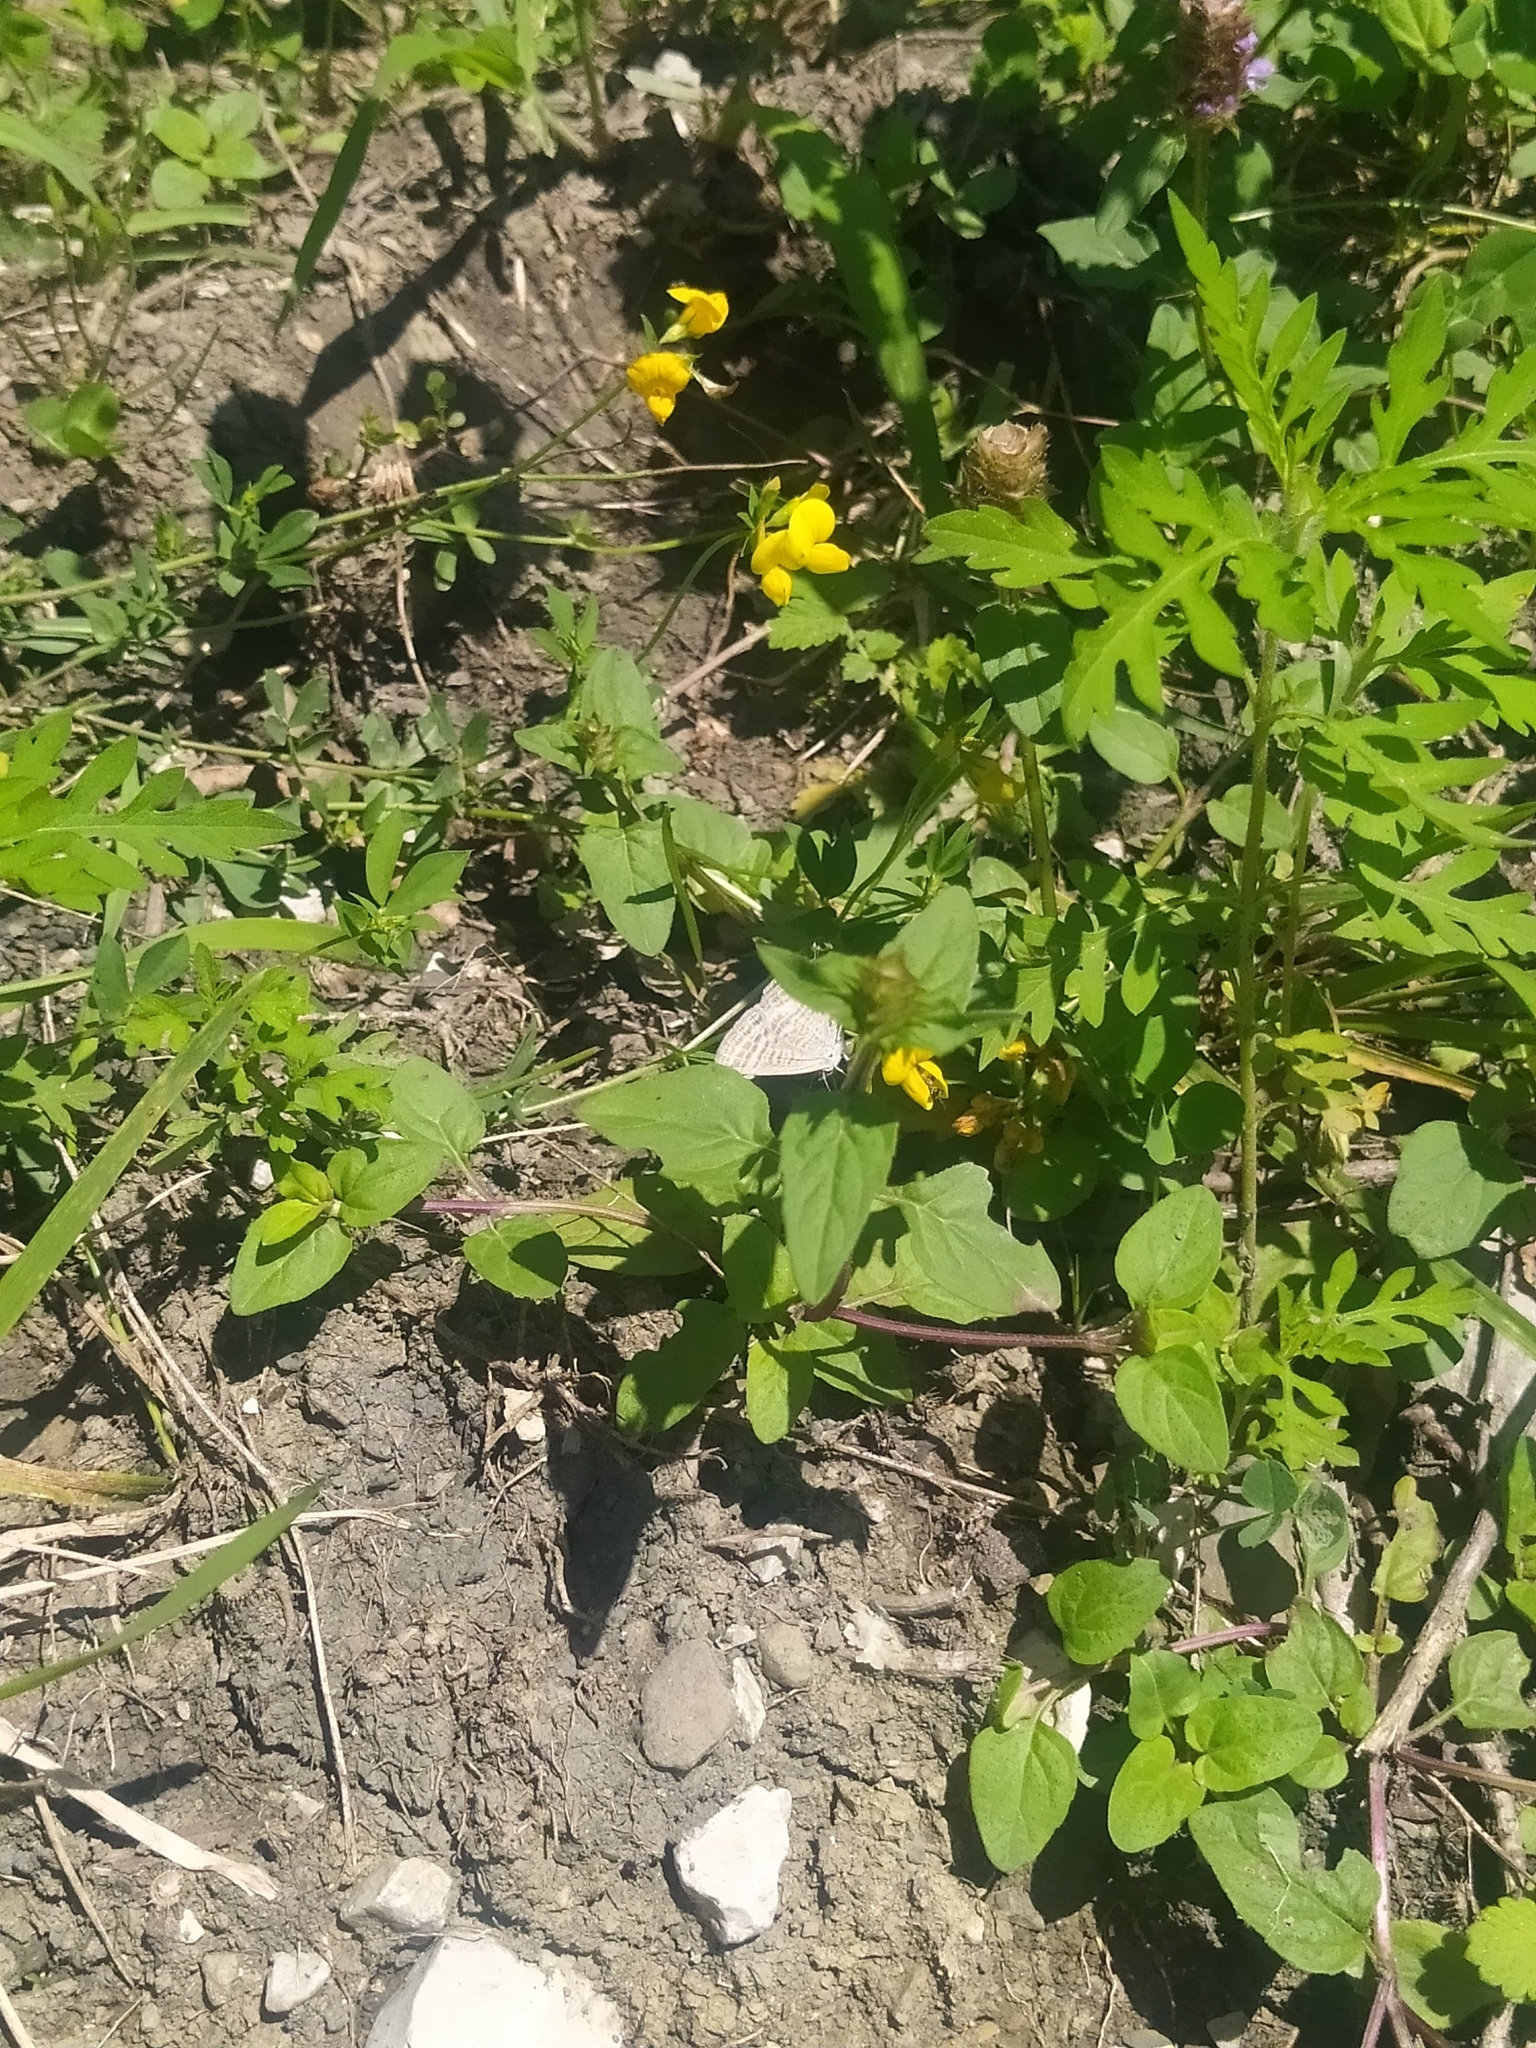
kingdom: Animalia
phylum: Arthropoda
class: Insecta
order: Lepidoptera
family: Lycaenidae
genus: Lampides
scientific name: Lampides boeticus
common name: Long-tailed blue
